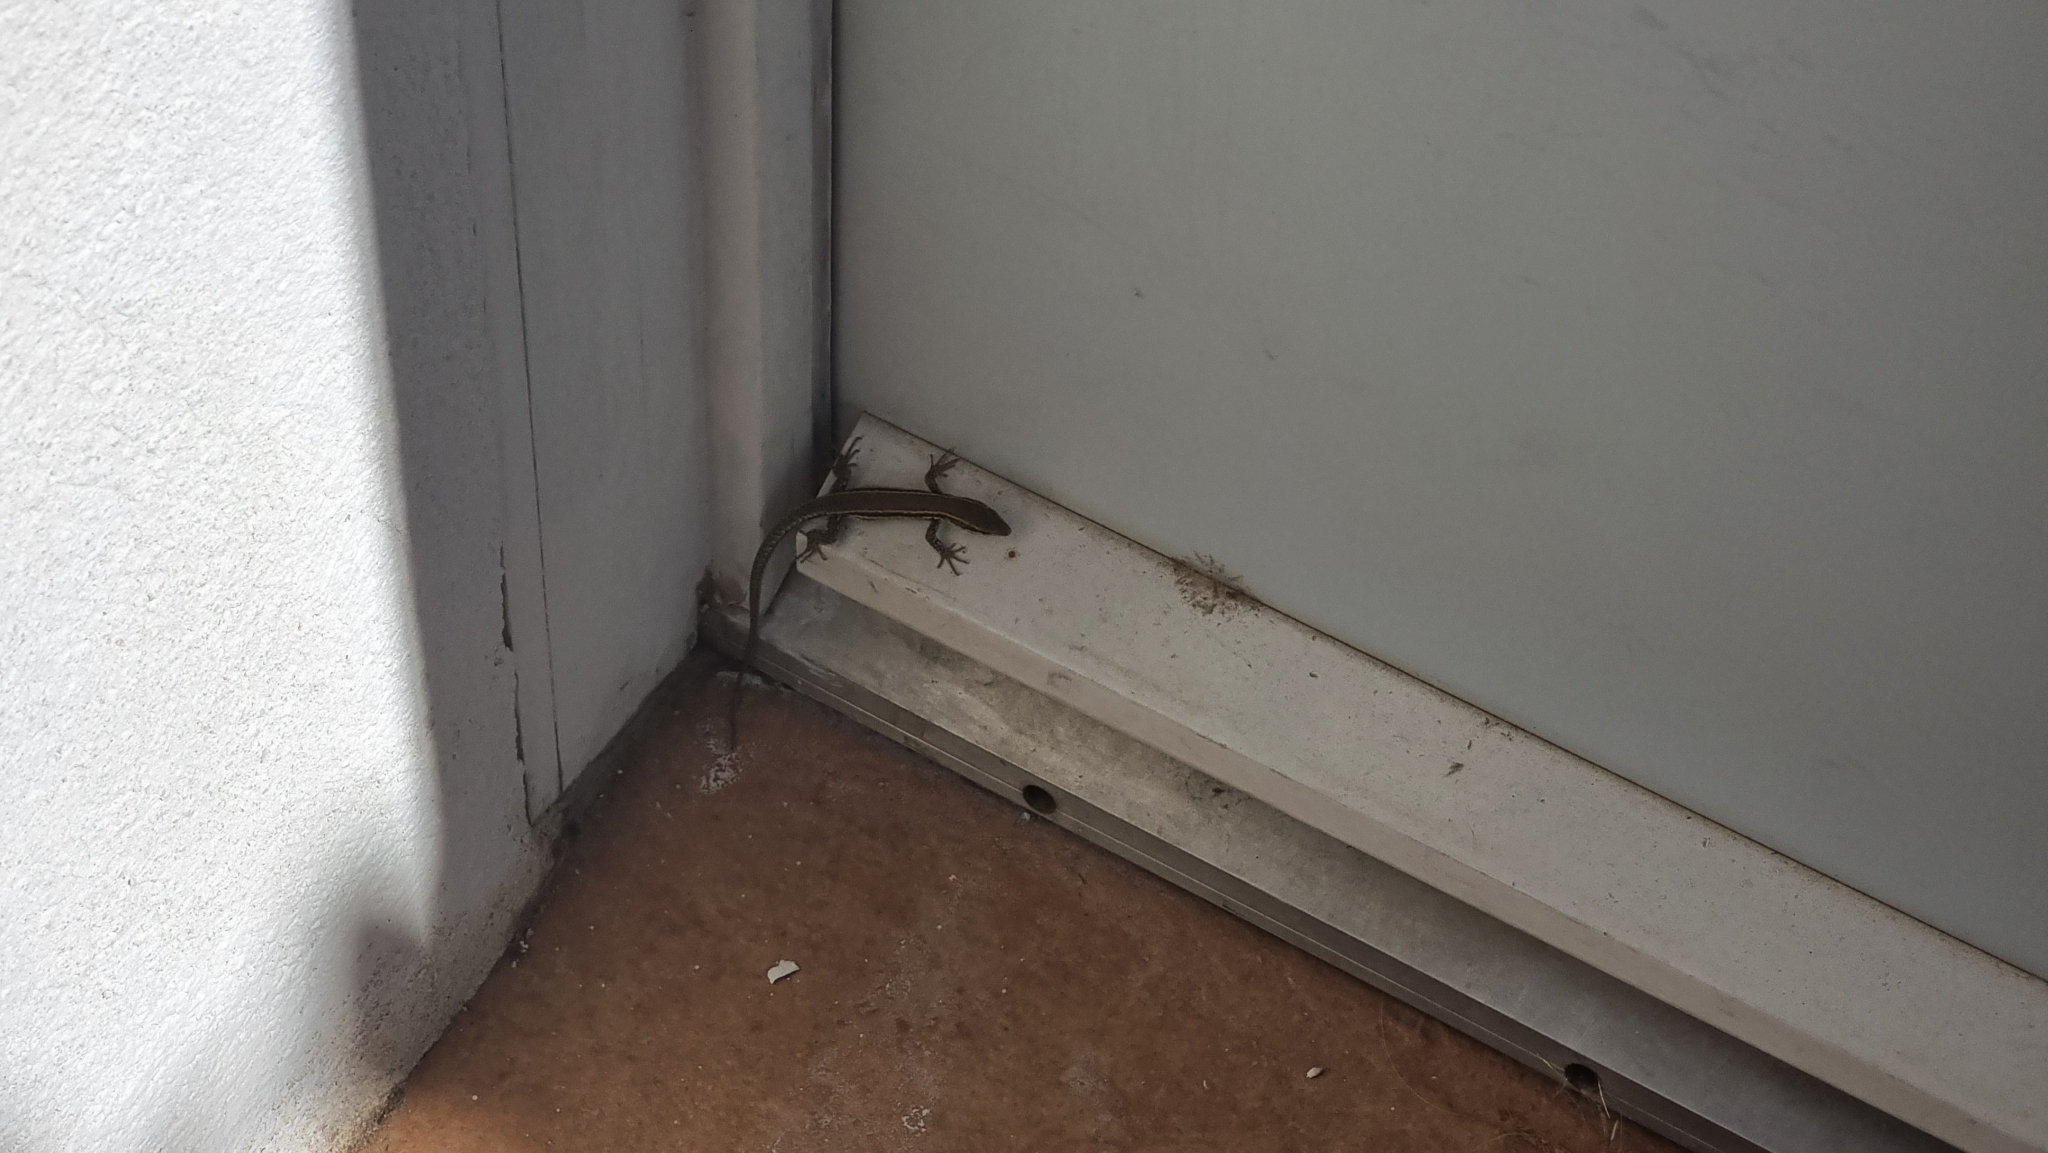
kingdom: Animalia
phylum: Chordata
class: Squamata
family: Lacertidae
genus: Podarcis
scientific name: Podarcis muralis
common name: Common wall lizard
